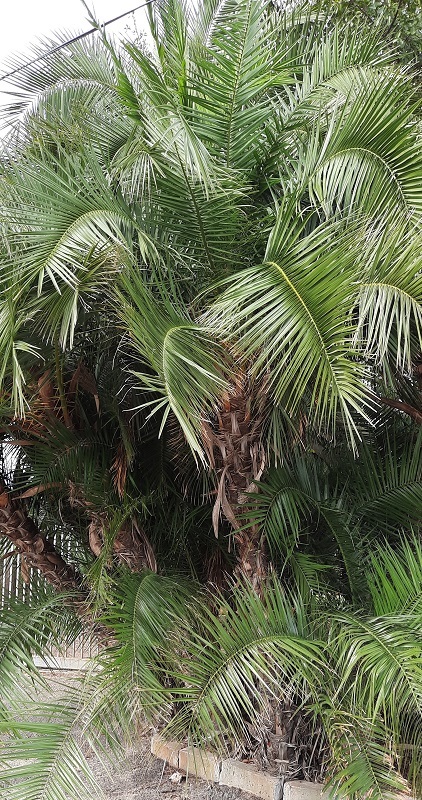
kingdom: Plantae
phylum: Tracheophyta
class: Liliopsida
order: Arecales
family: Arecaceae
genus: Phoenix
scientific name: Phoenix reclinata
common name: Senegal date palm
